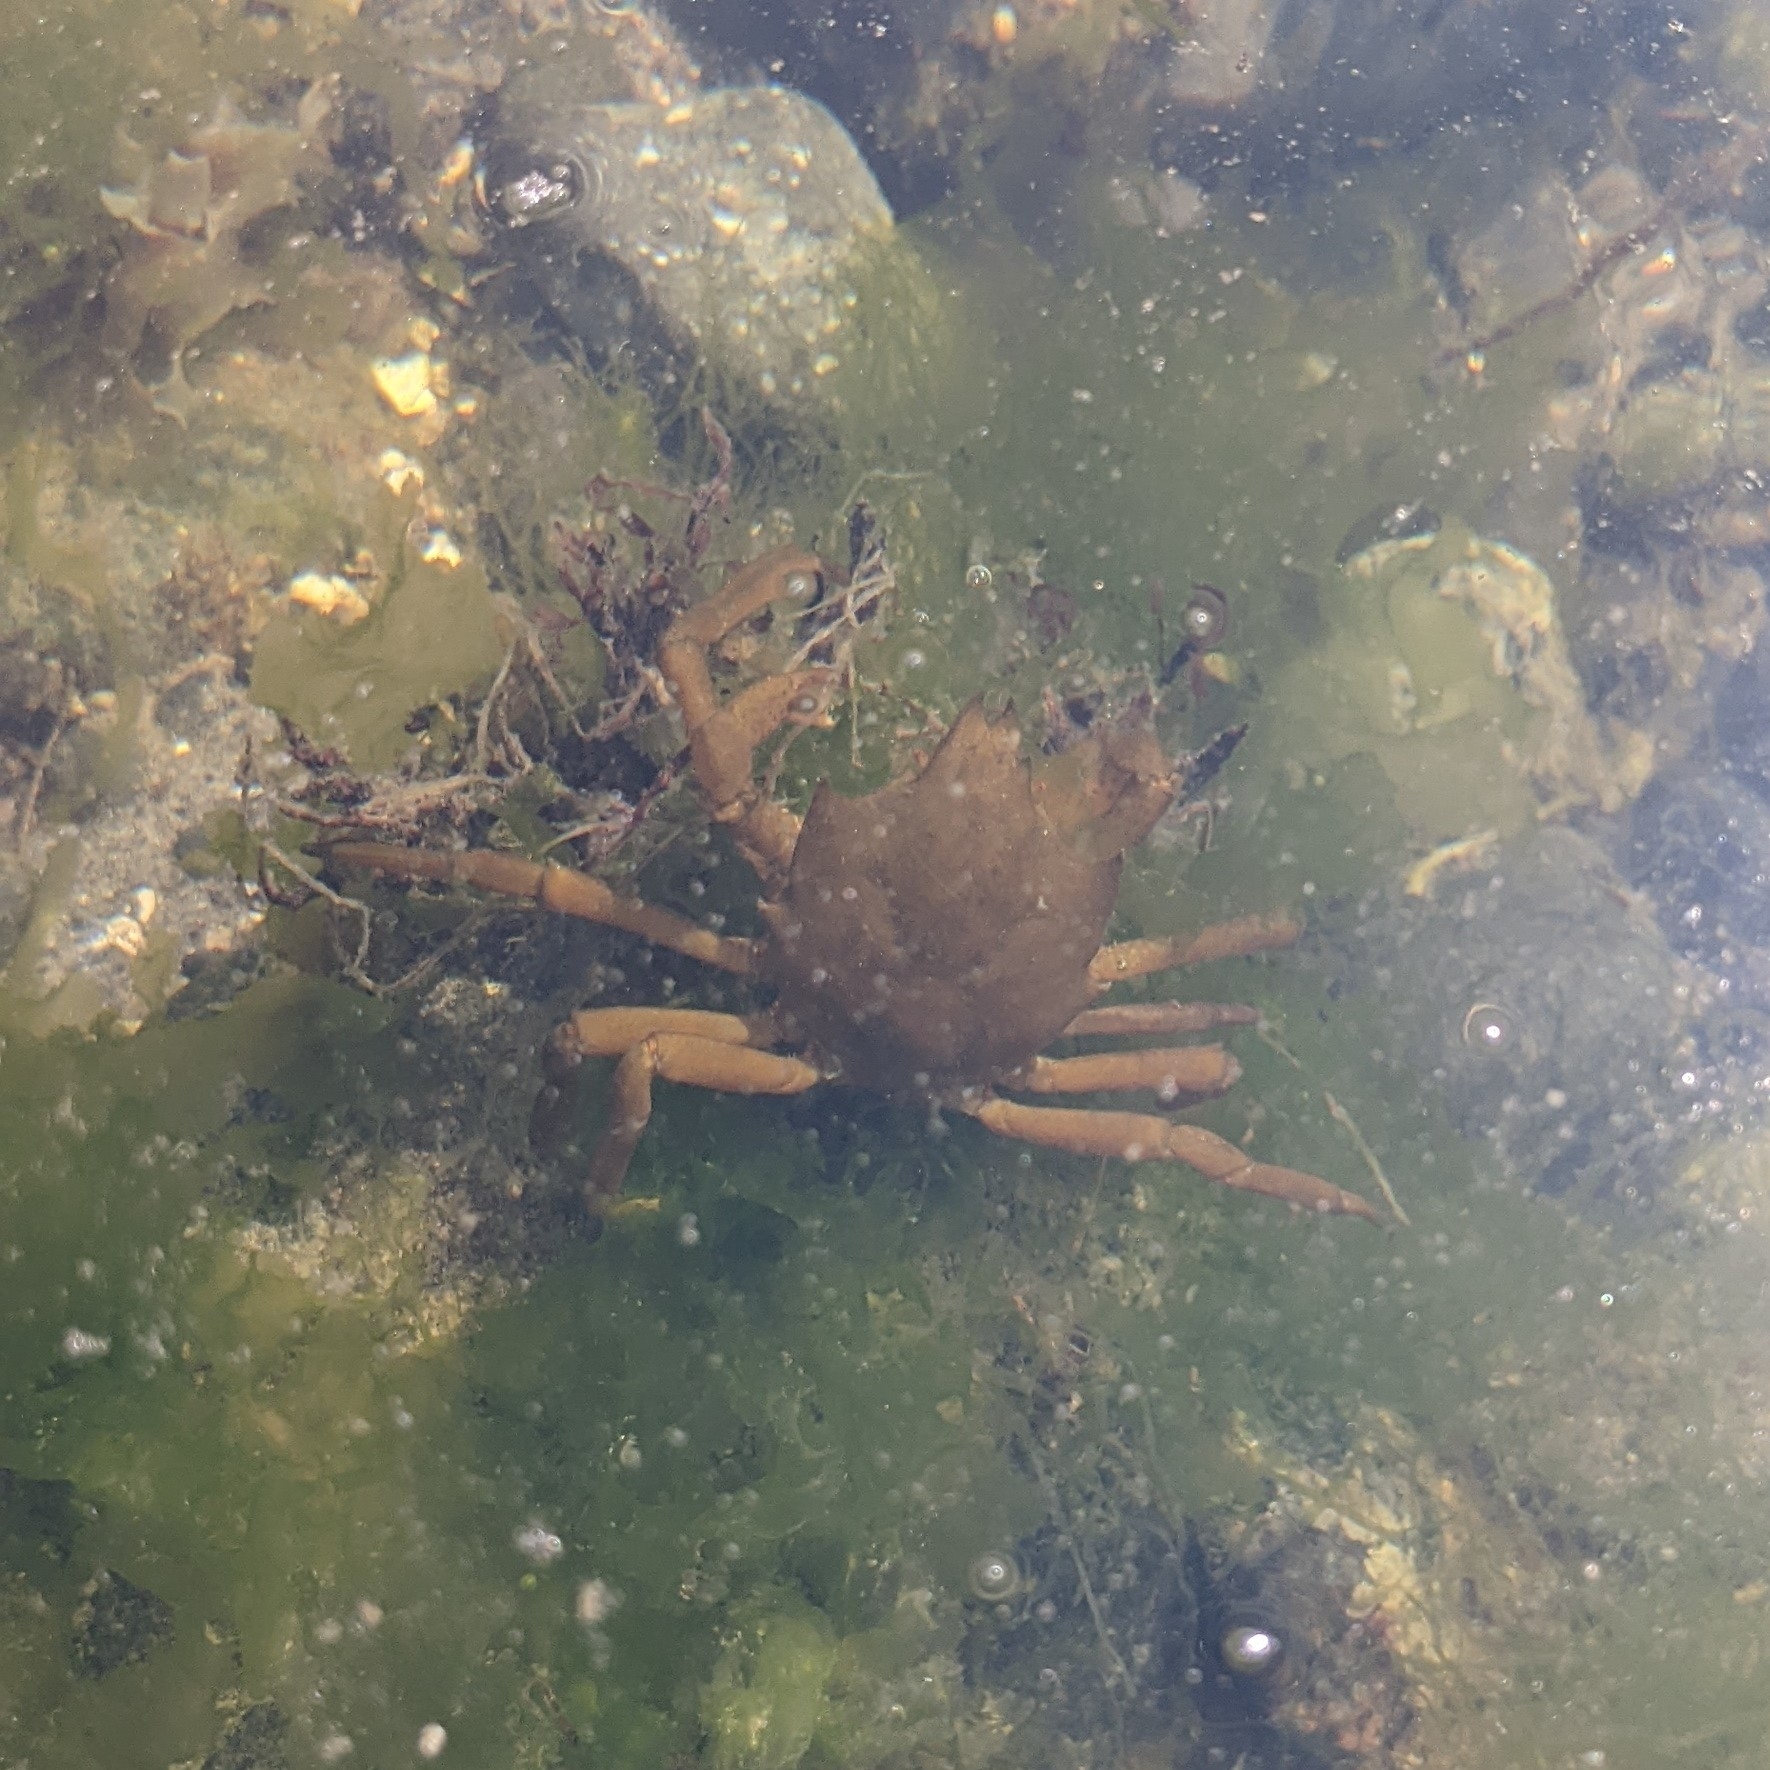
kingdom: Animalia
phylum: Arthropoda
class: Malacostraca
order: Decapoda
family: Epialtidae
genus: Pugettia
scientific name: Pugettia producta
